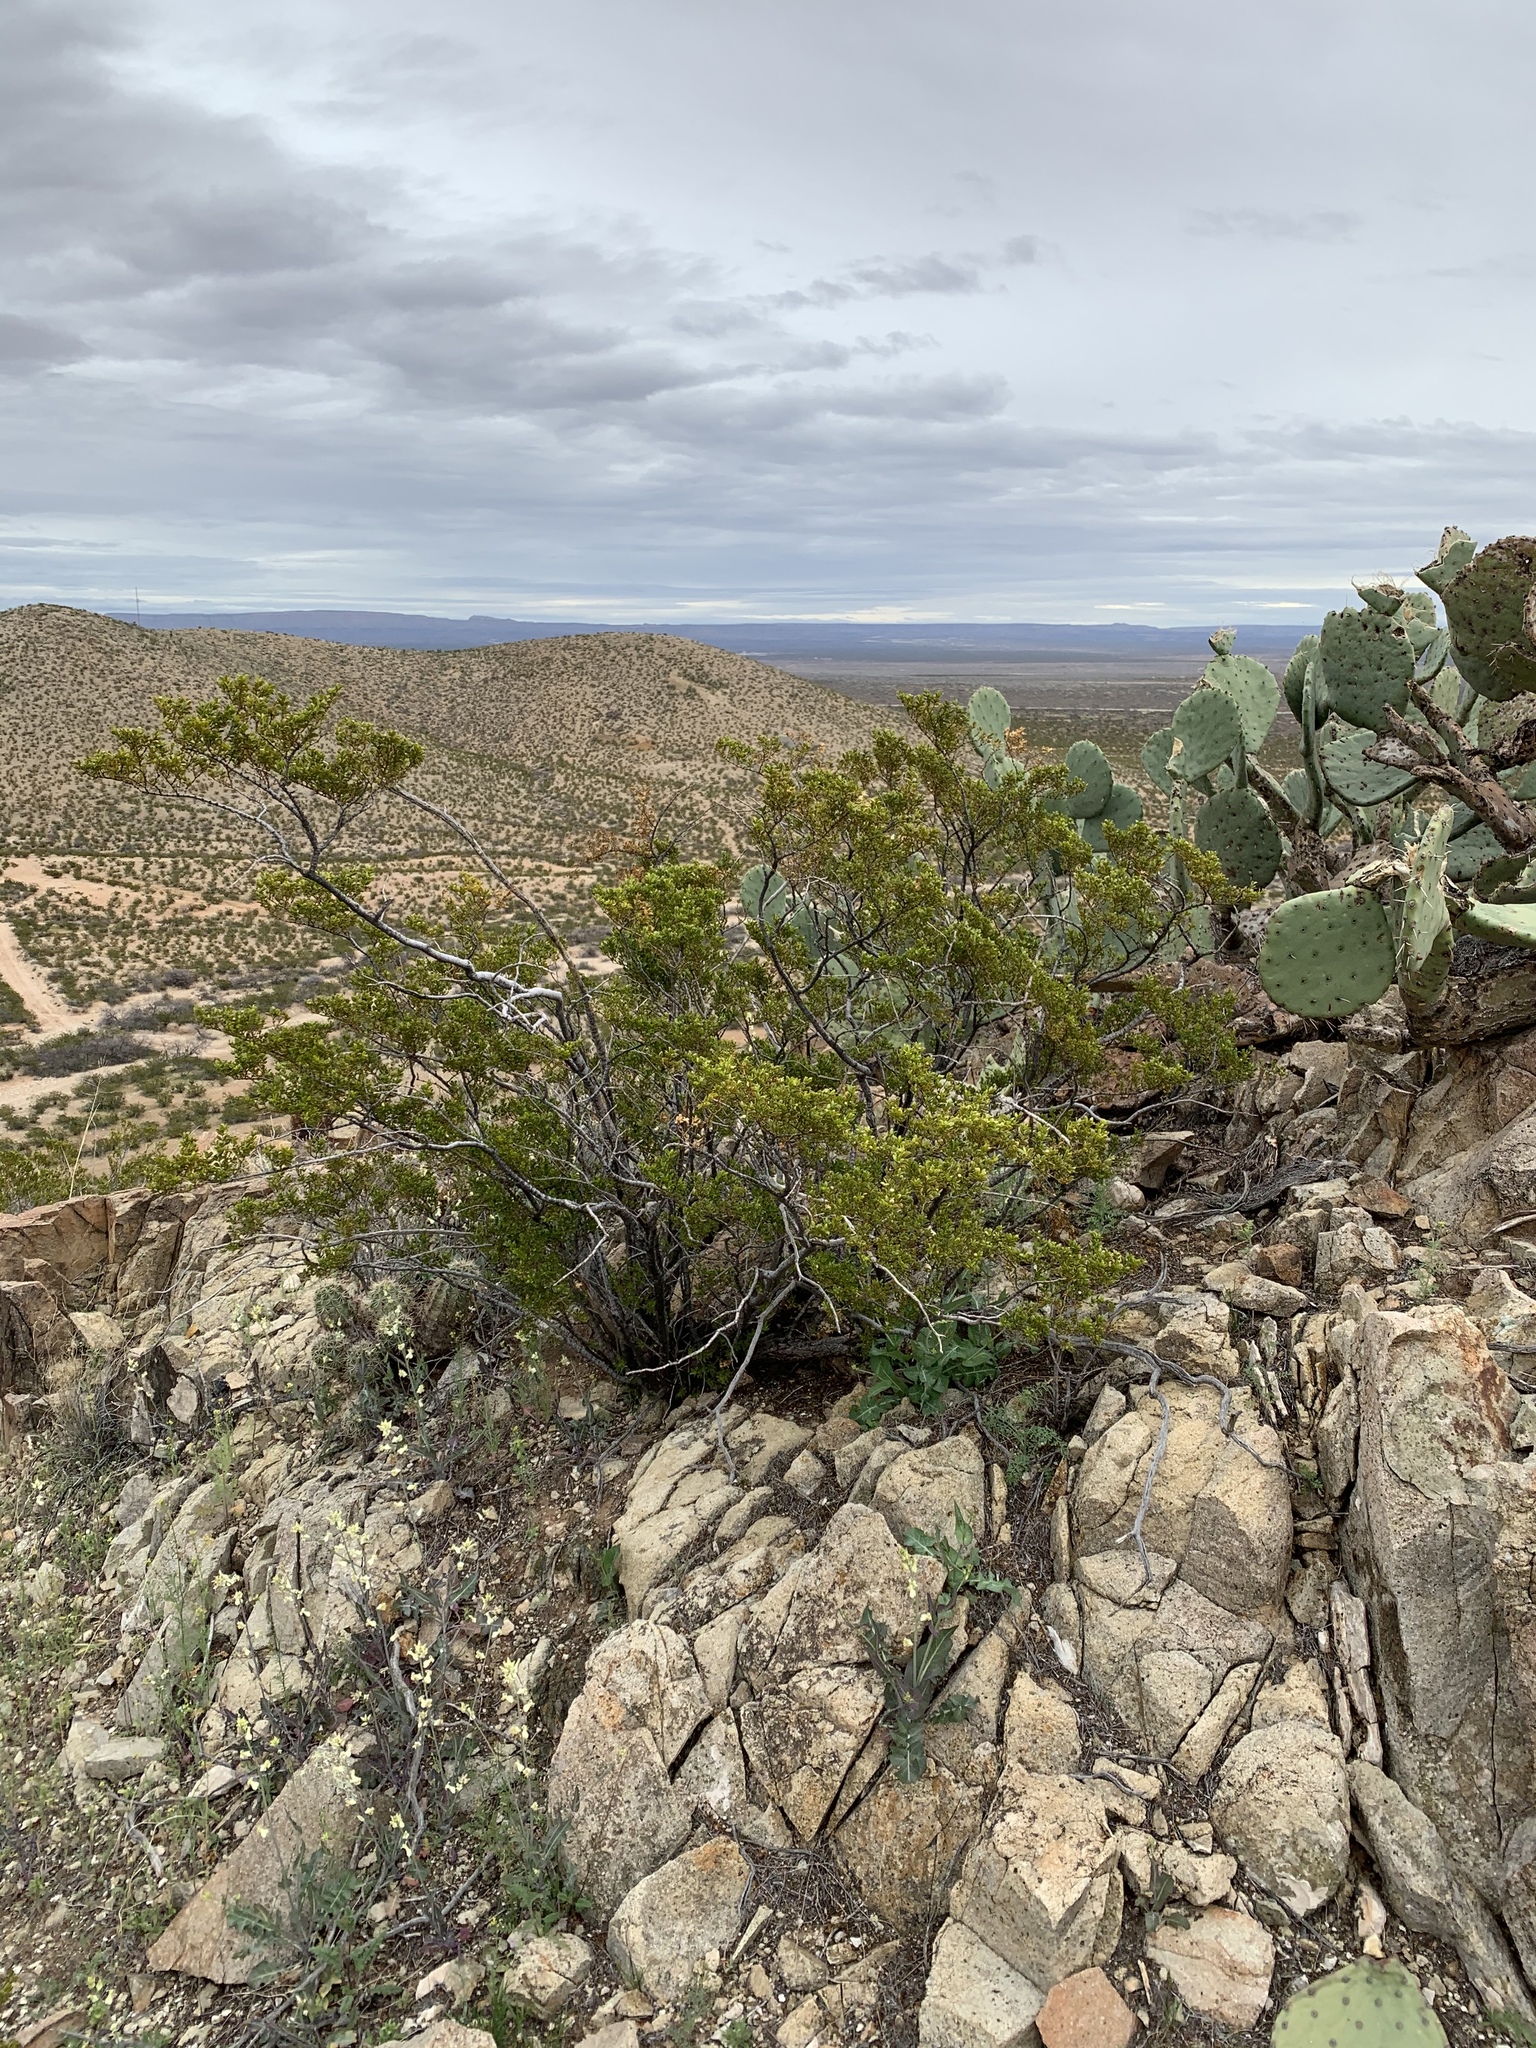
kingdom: Plantae
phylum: Tracheophyta
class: Magnoliopsida
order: Zygophyllales
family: Zygophyllaceae
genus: Larrea
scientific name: Larrea tridentata
